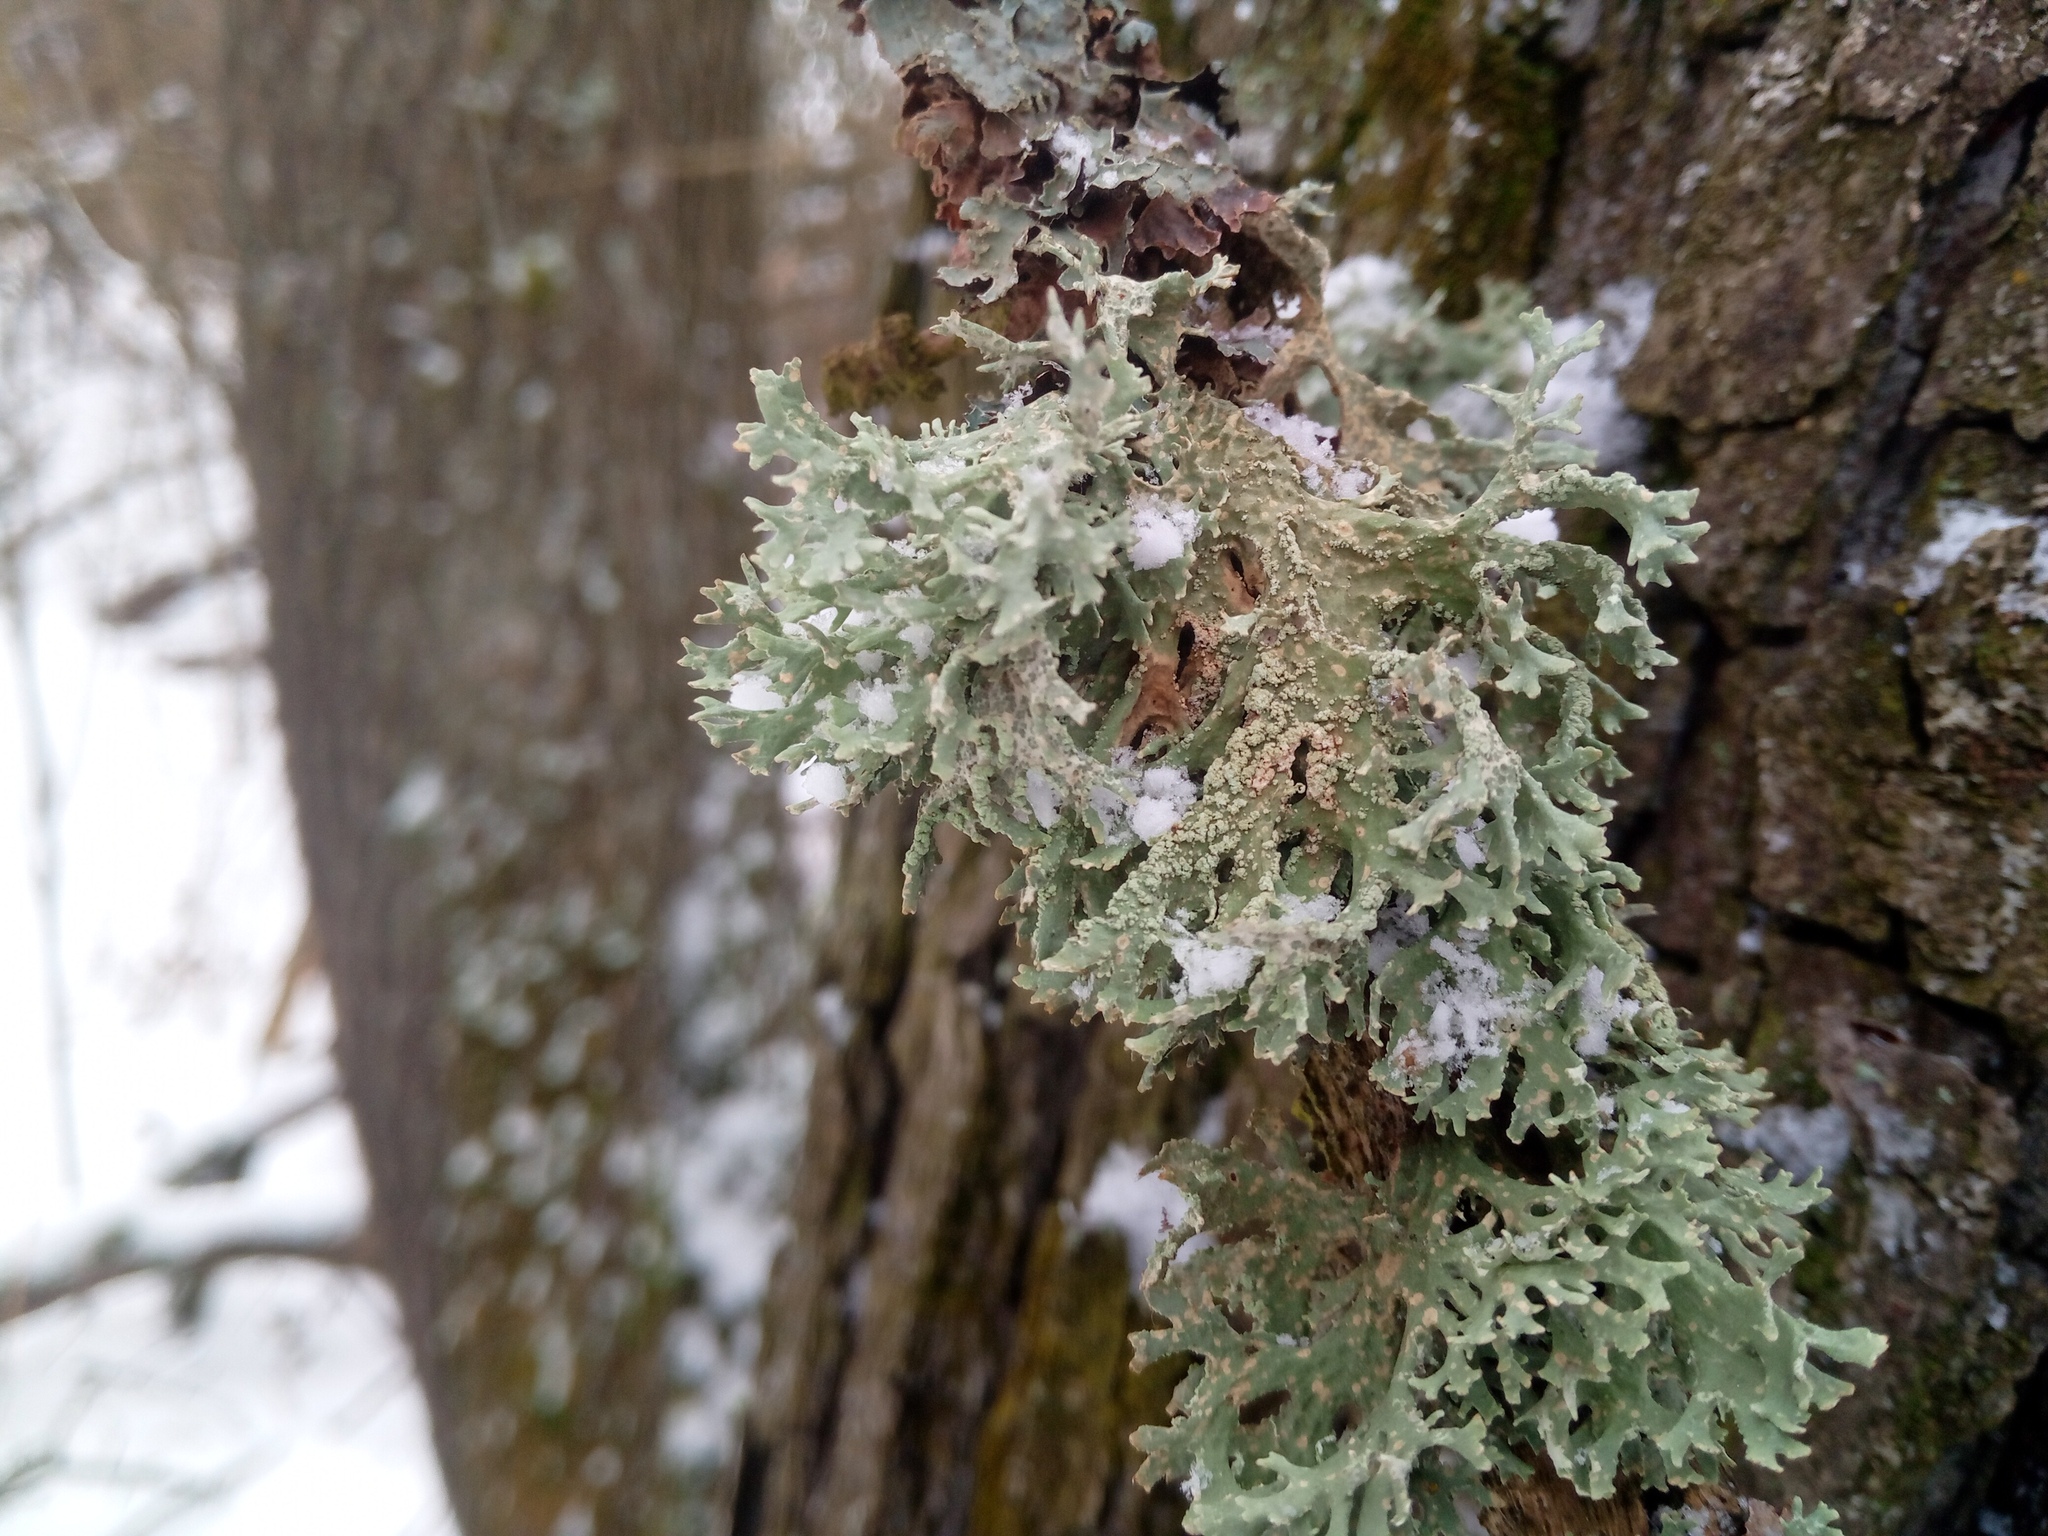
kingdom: Fungi
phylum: Ascomycota
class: Lecanoromycetes
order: Lecanorales
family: Parmeliaceae
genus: Evernia
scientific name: Evernia prunastri
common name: Oak moss
